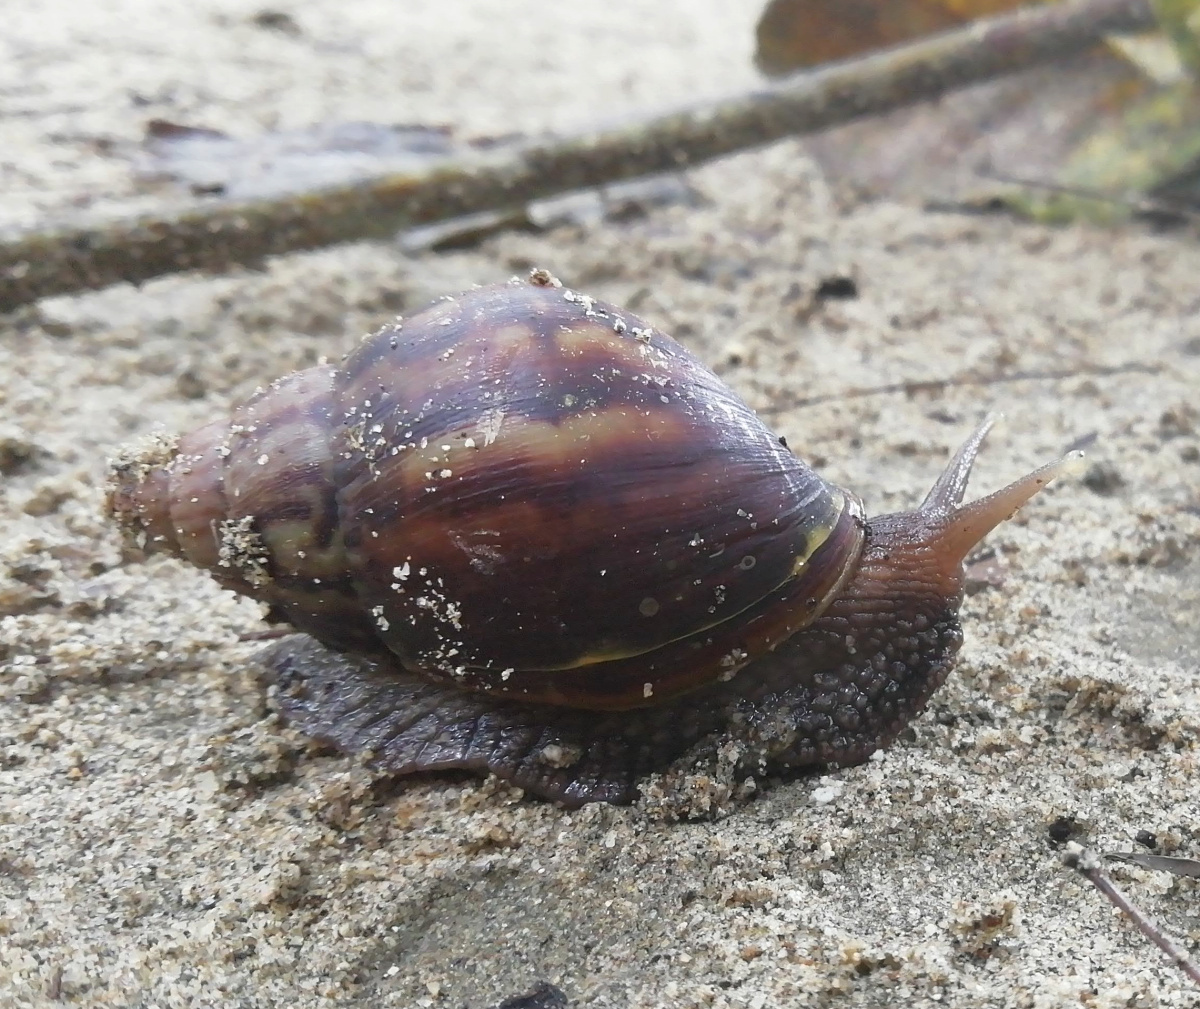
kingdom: Animalia
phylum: Mollusca
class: Gastropoda
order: Stylommatophora
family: Achatinidae
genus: Lissachatina
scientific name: Lissachatina fulica
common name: Giant african snail
